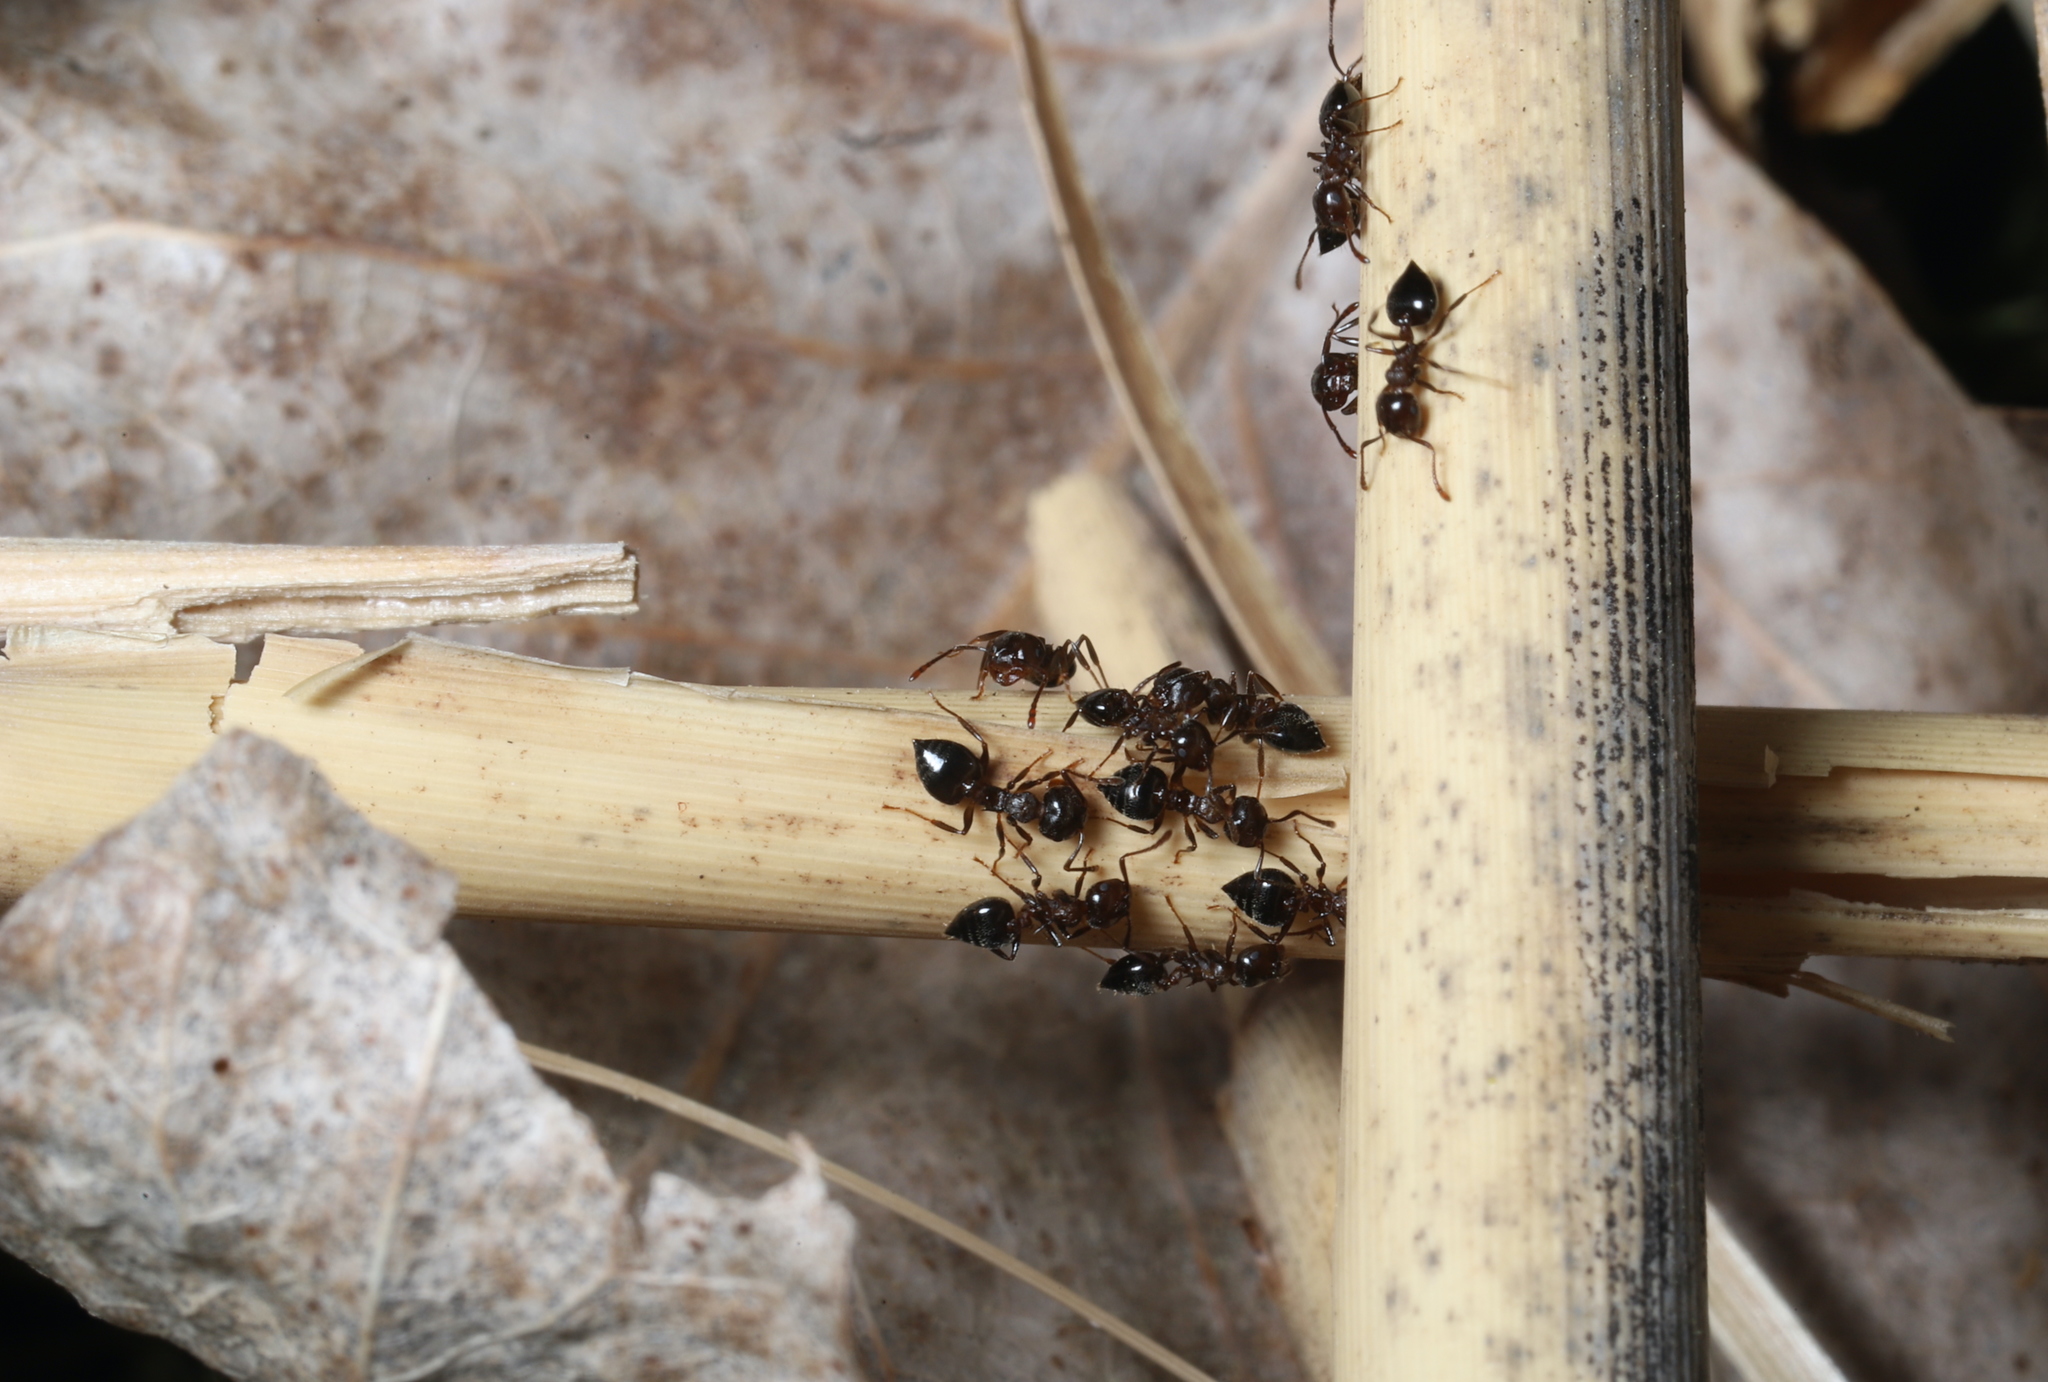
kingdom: Animalia
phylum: Arthropoda
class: Insecta
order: Hymenoptera
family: Formicidae
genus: Crematogaster
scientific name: Crematogaster
